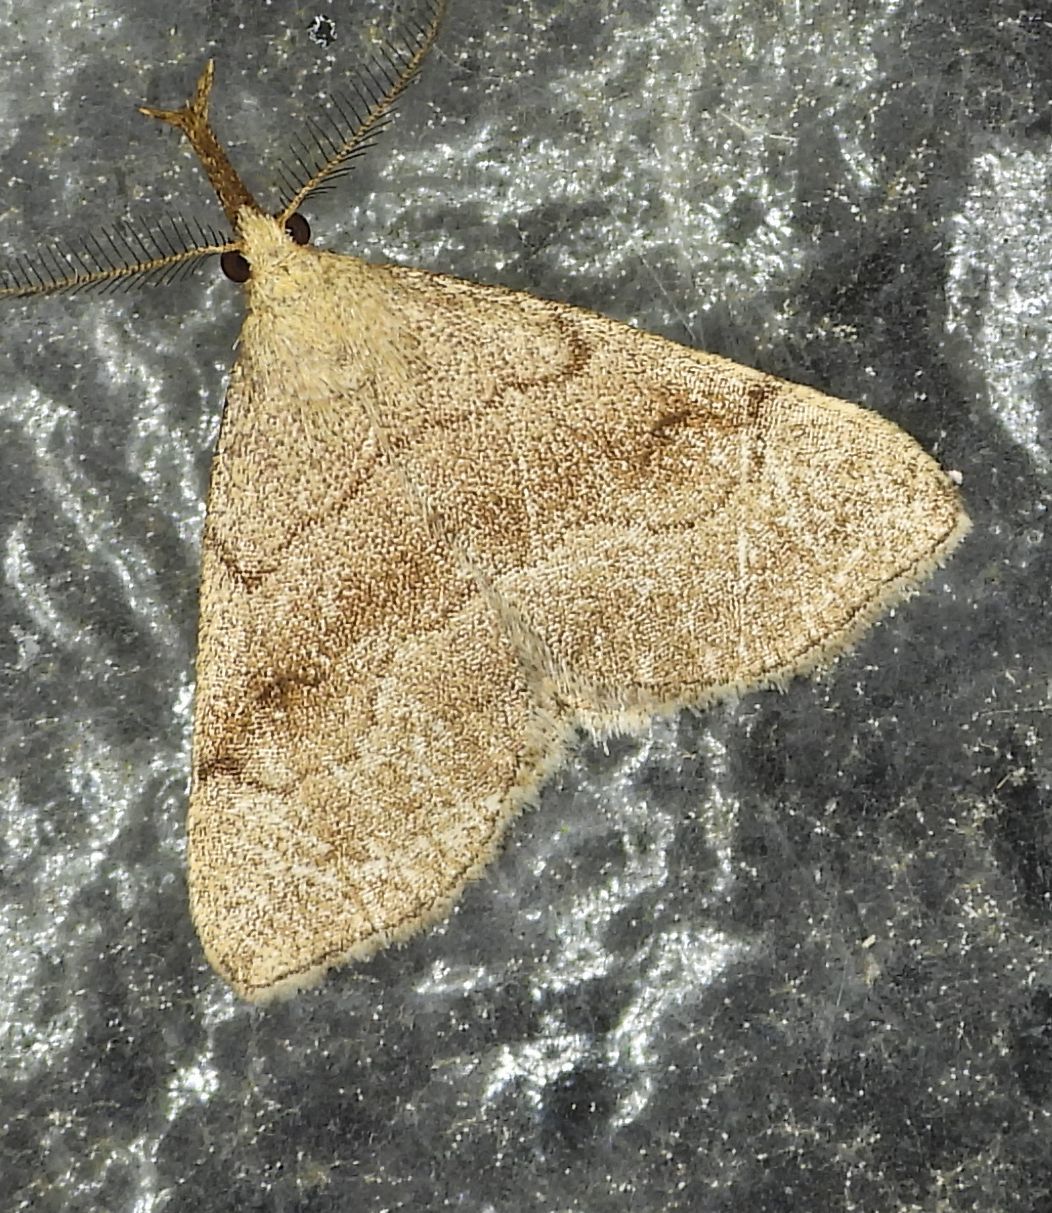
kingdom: Animalia
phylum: Arthropoda
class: Insecta
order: Lepidoptera
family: Erebidae
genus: Phalaenostola
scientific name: Phalaenostola metonalis
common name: Pale phalaenostola moth
